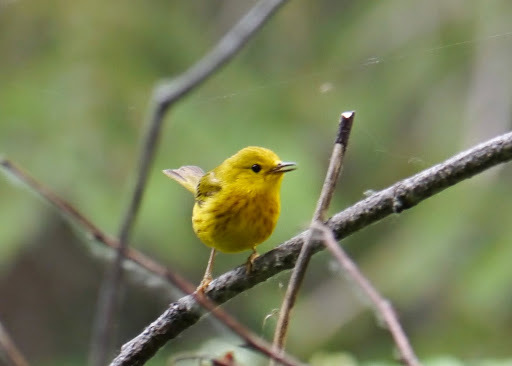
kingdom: Animalia
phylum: Chordata
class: Aves
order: Passeriformes
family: Parulidae
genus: Setophaga
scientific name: Setophaga petechia
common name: Yellow warbler
